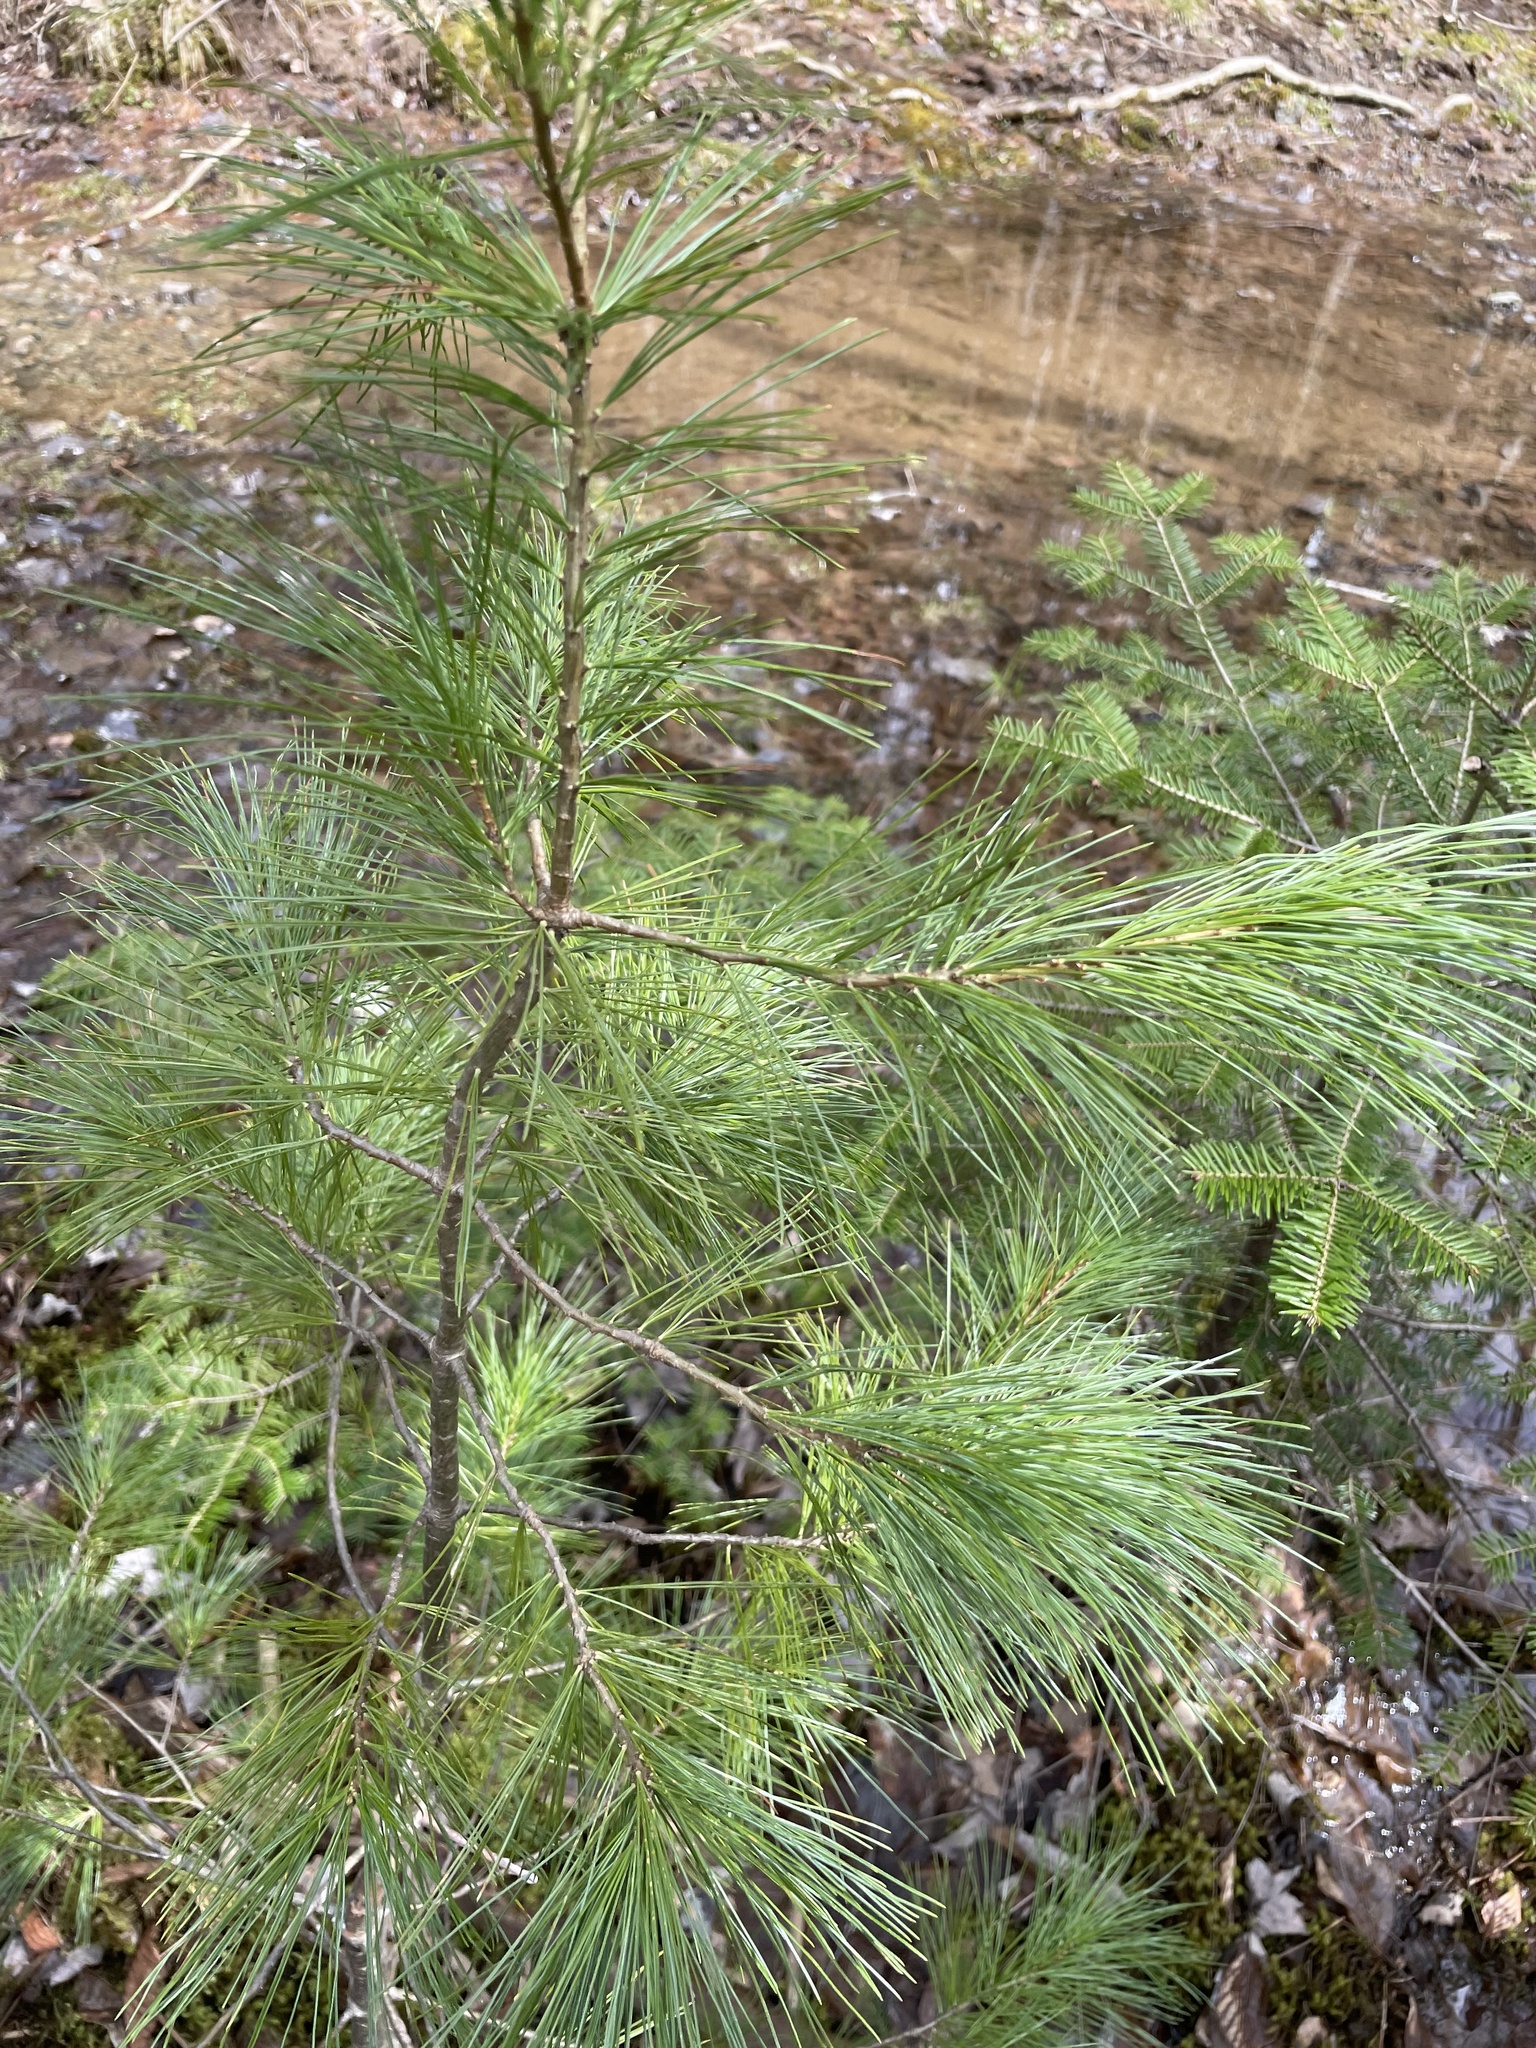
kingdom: Plantae
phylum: Tracheophyta
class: Pinopsida
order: Pinales
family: Pinaceae
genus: Pinus
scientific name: Pinus strobus
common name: Weymouth pine
